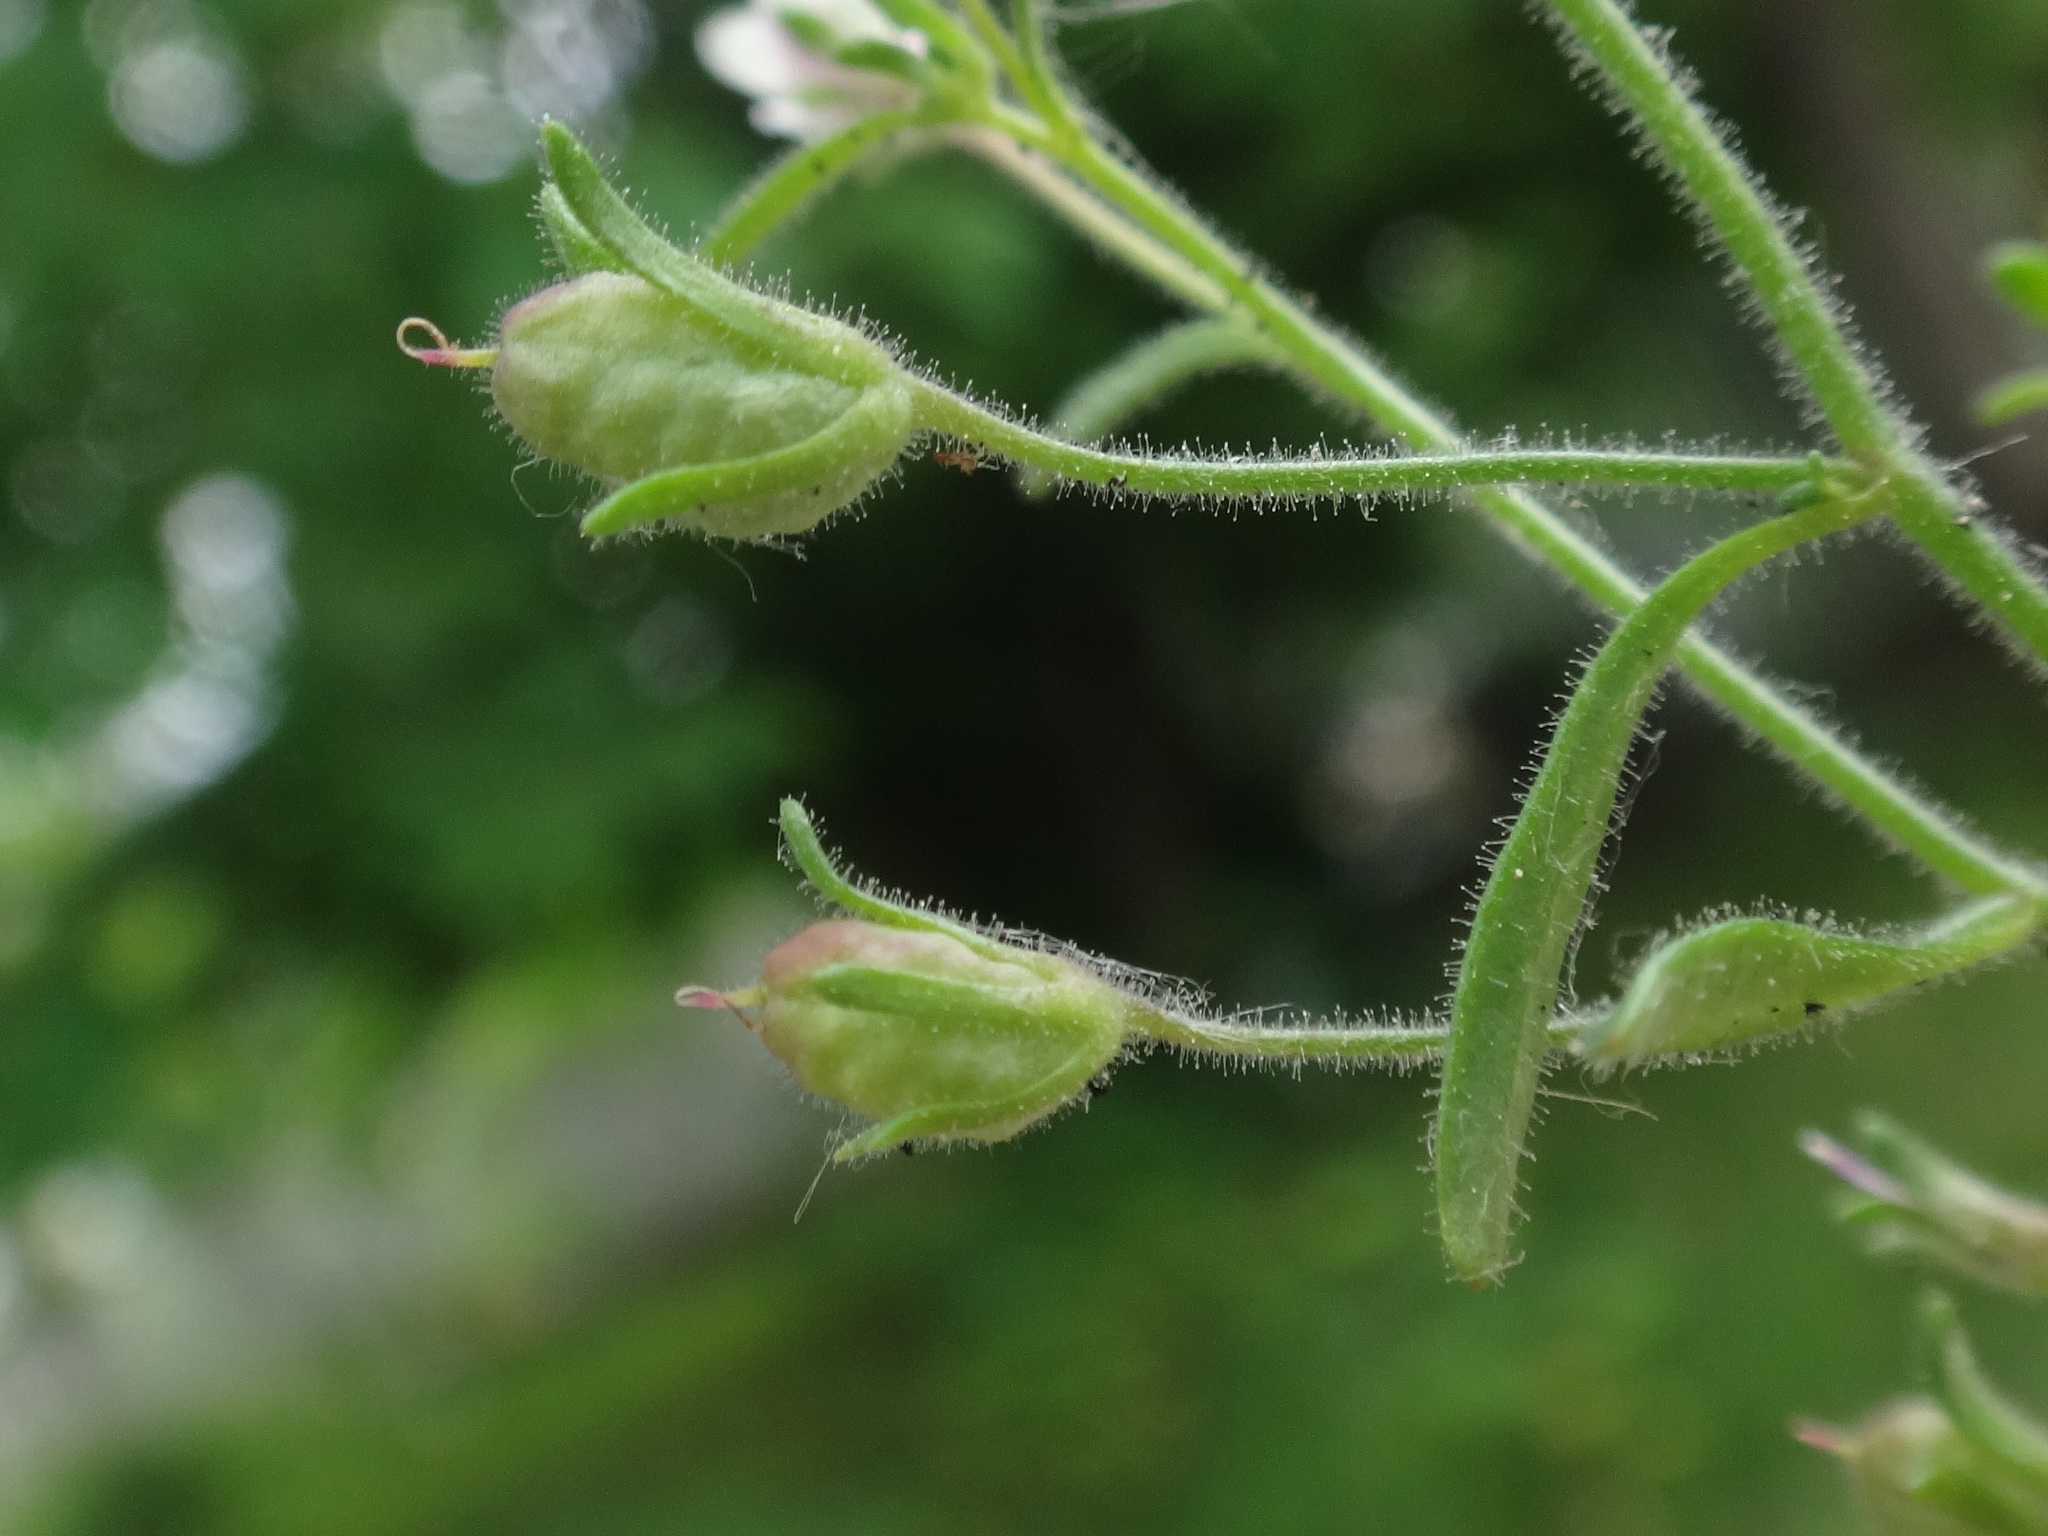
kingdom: Plantae
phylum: Tracheophyta
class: Magnoliopsida
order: Lamiales
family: Plantaginaceae
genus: Chaenorhinum
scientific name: Chaenorhinum minus
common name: Dwarf snapdragon
